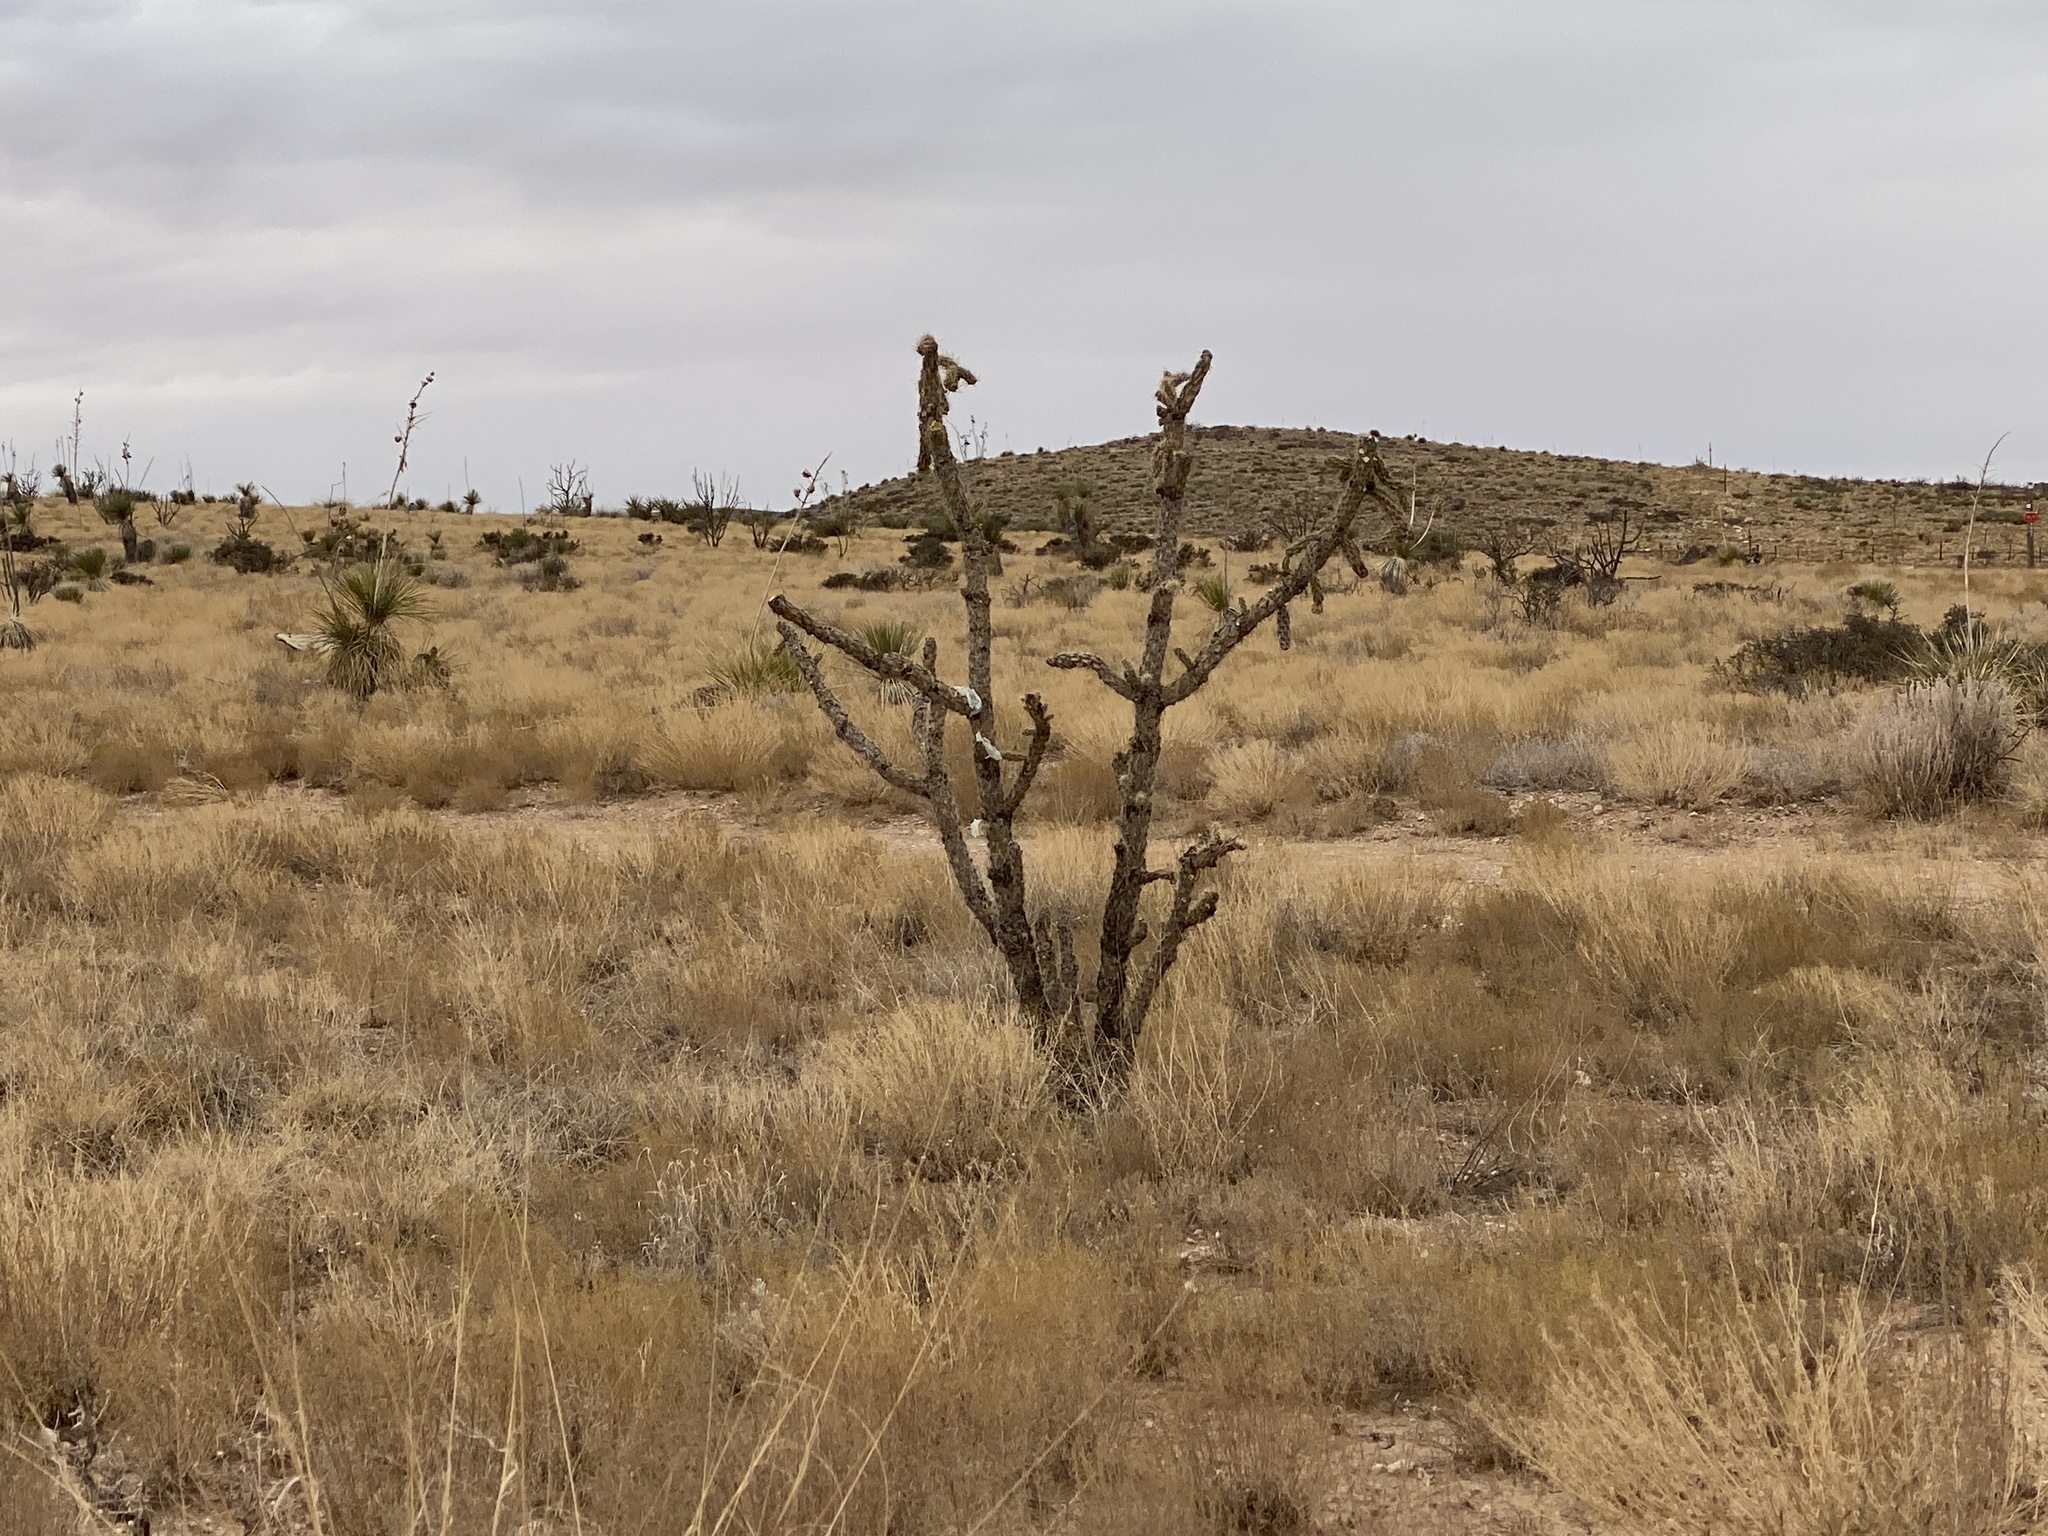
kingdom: Plantae
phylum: Tracheophyta
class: Magnoliopsida
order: Caryophyllales
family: Cactaceae
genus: Cylindropuntia
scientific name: Cylindropuntia imbricata
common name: Candelabrum cactus
